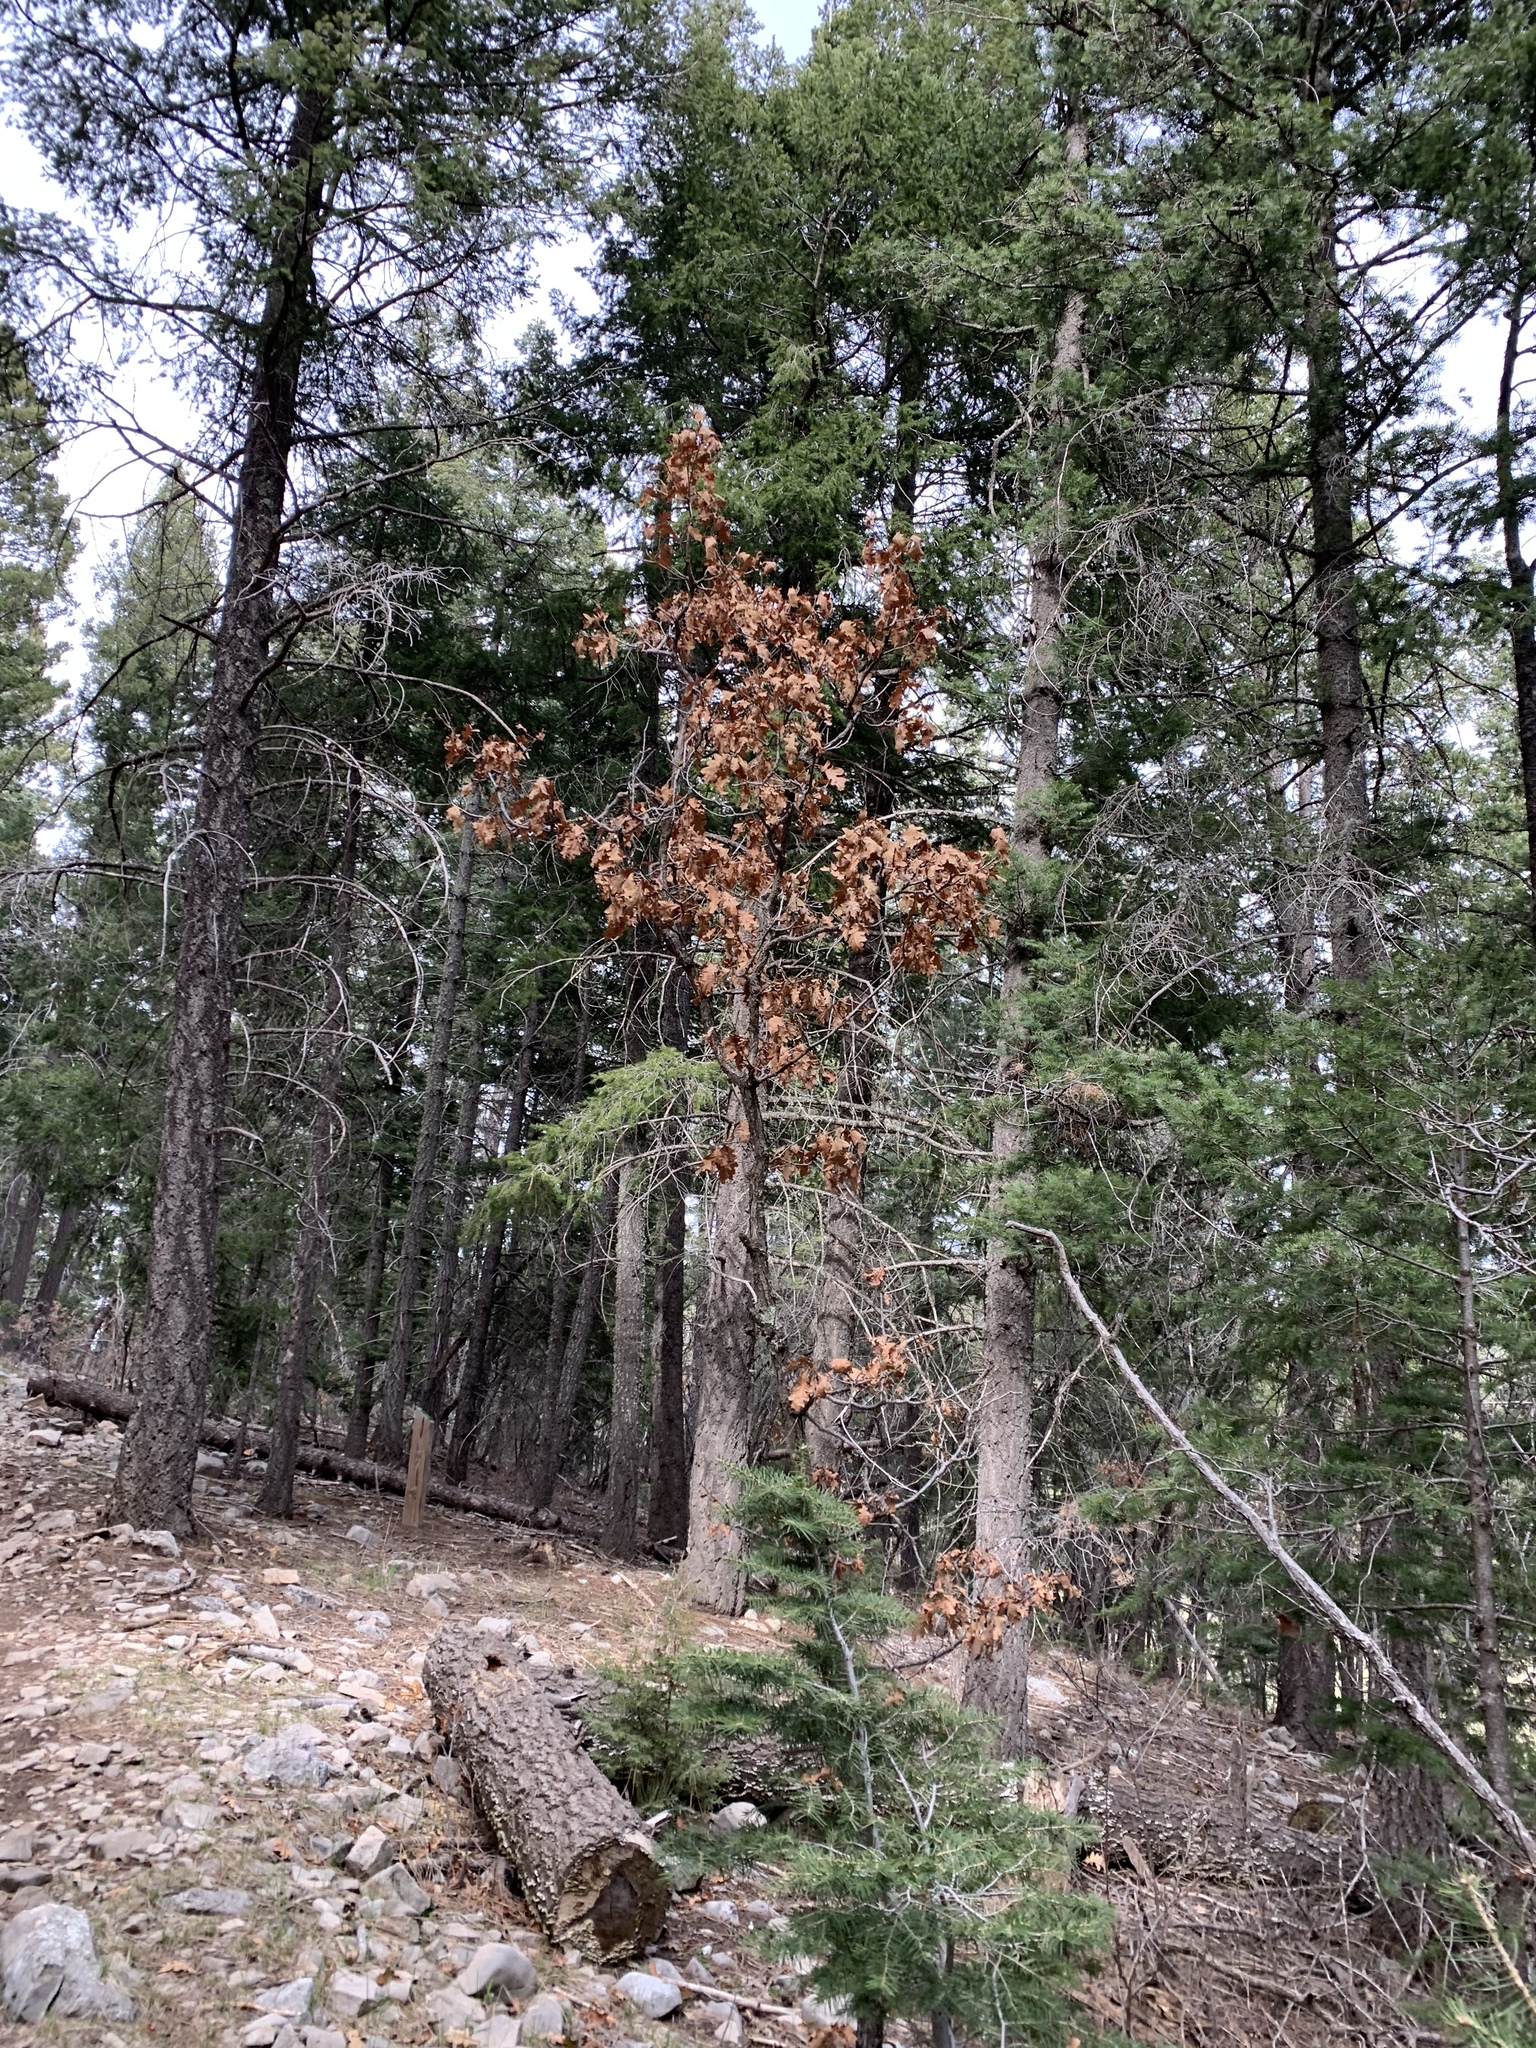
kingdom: Plantae
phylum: Tracheophyta
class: Magnoliopsida
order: Fagales
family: Fagaceae
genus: Quercus
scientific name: Quercus gambelii
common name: Gambel oak
